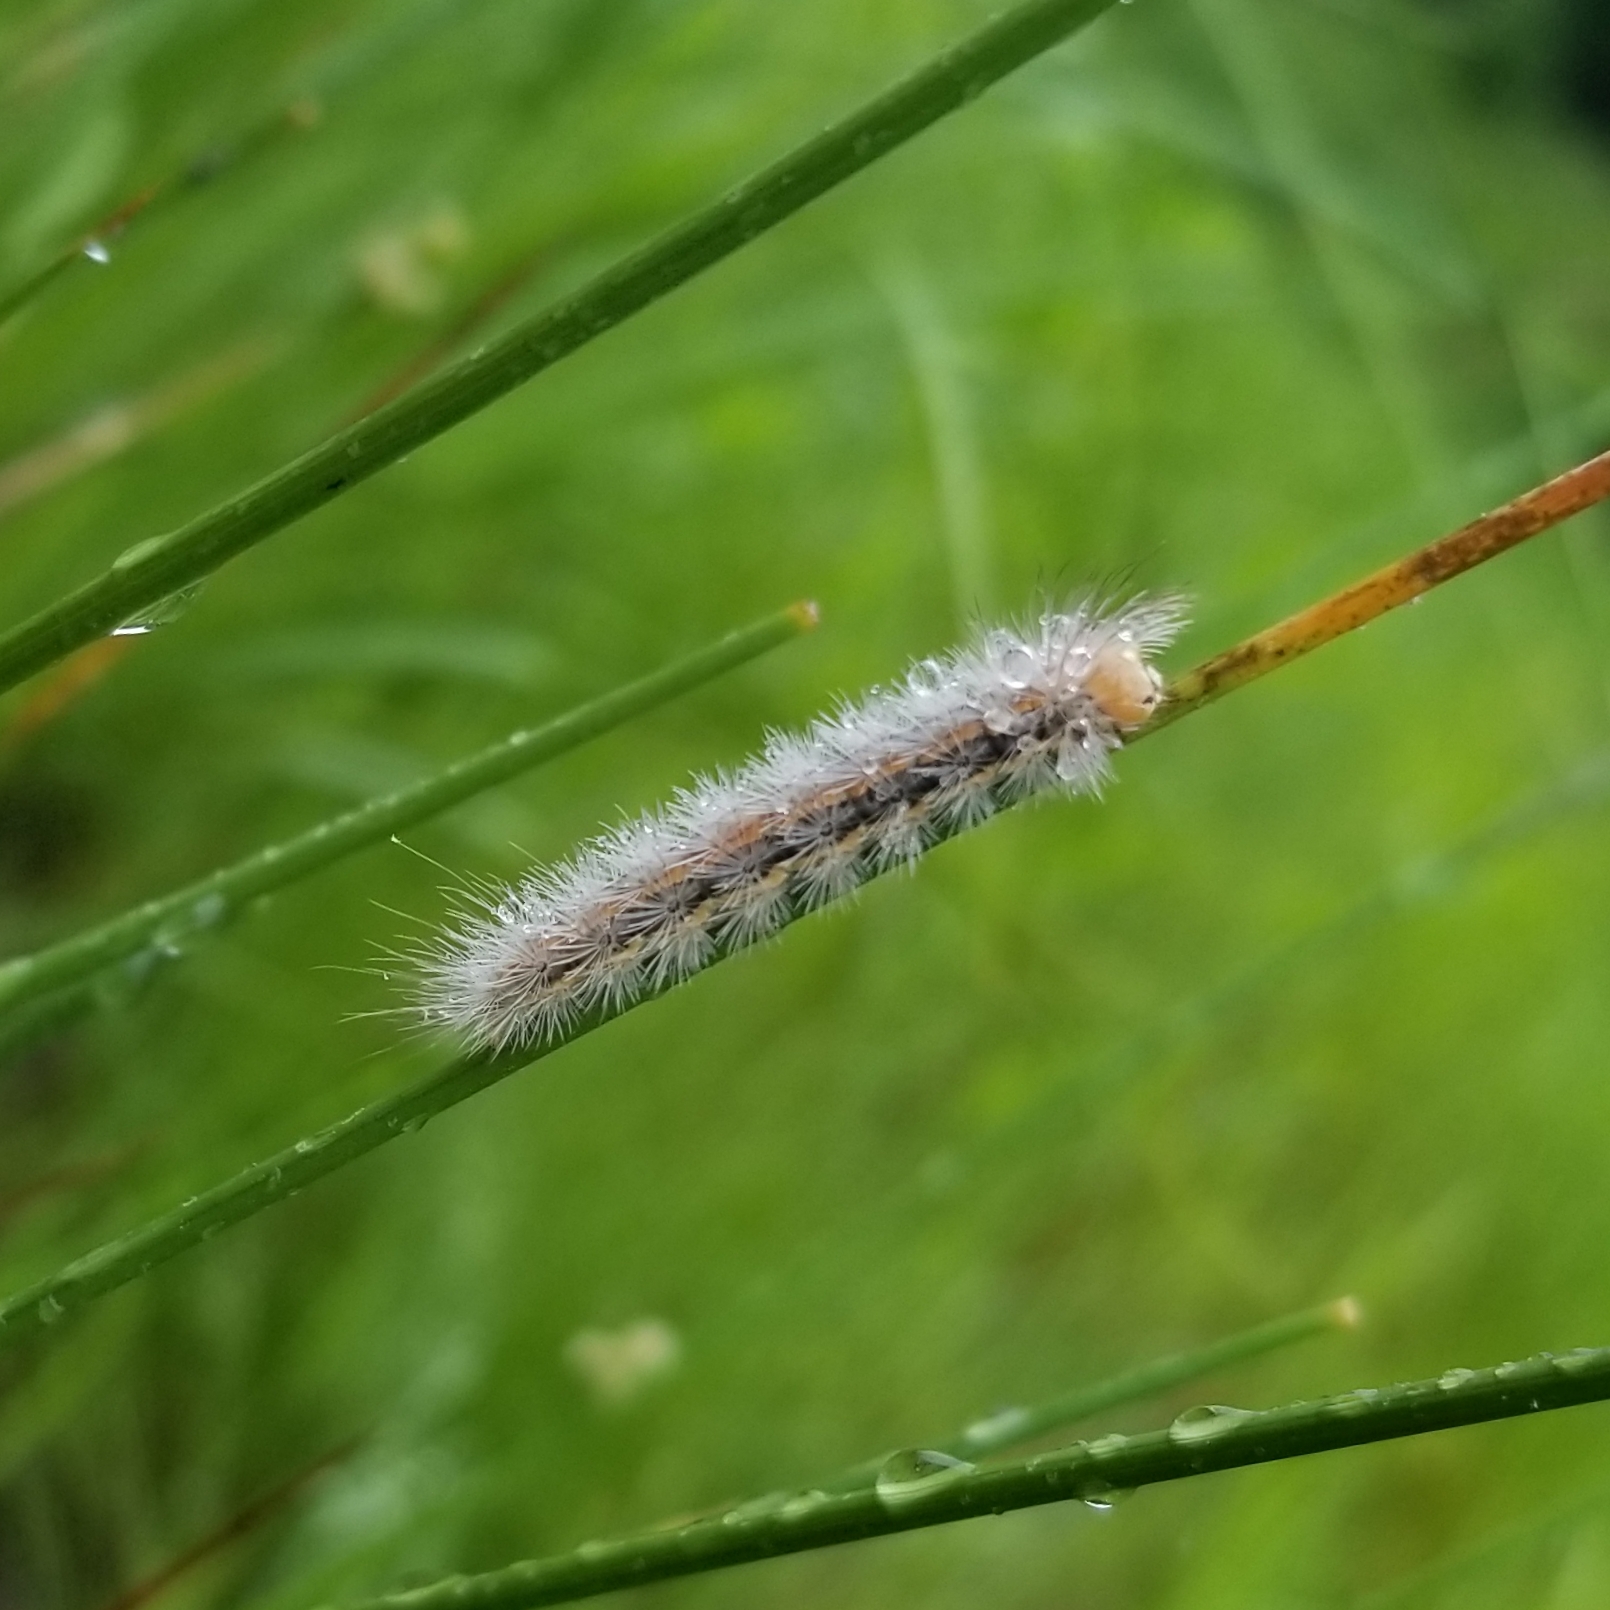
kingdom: Animalia
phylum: Arthropoda
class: Insecta
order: Lepidoptera
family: Erebidae
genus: Cisseps
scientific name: Cisseps fulvicollis
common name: Yellow-collared scape moth
